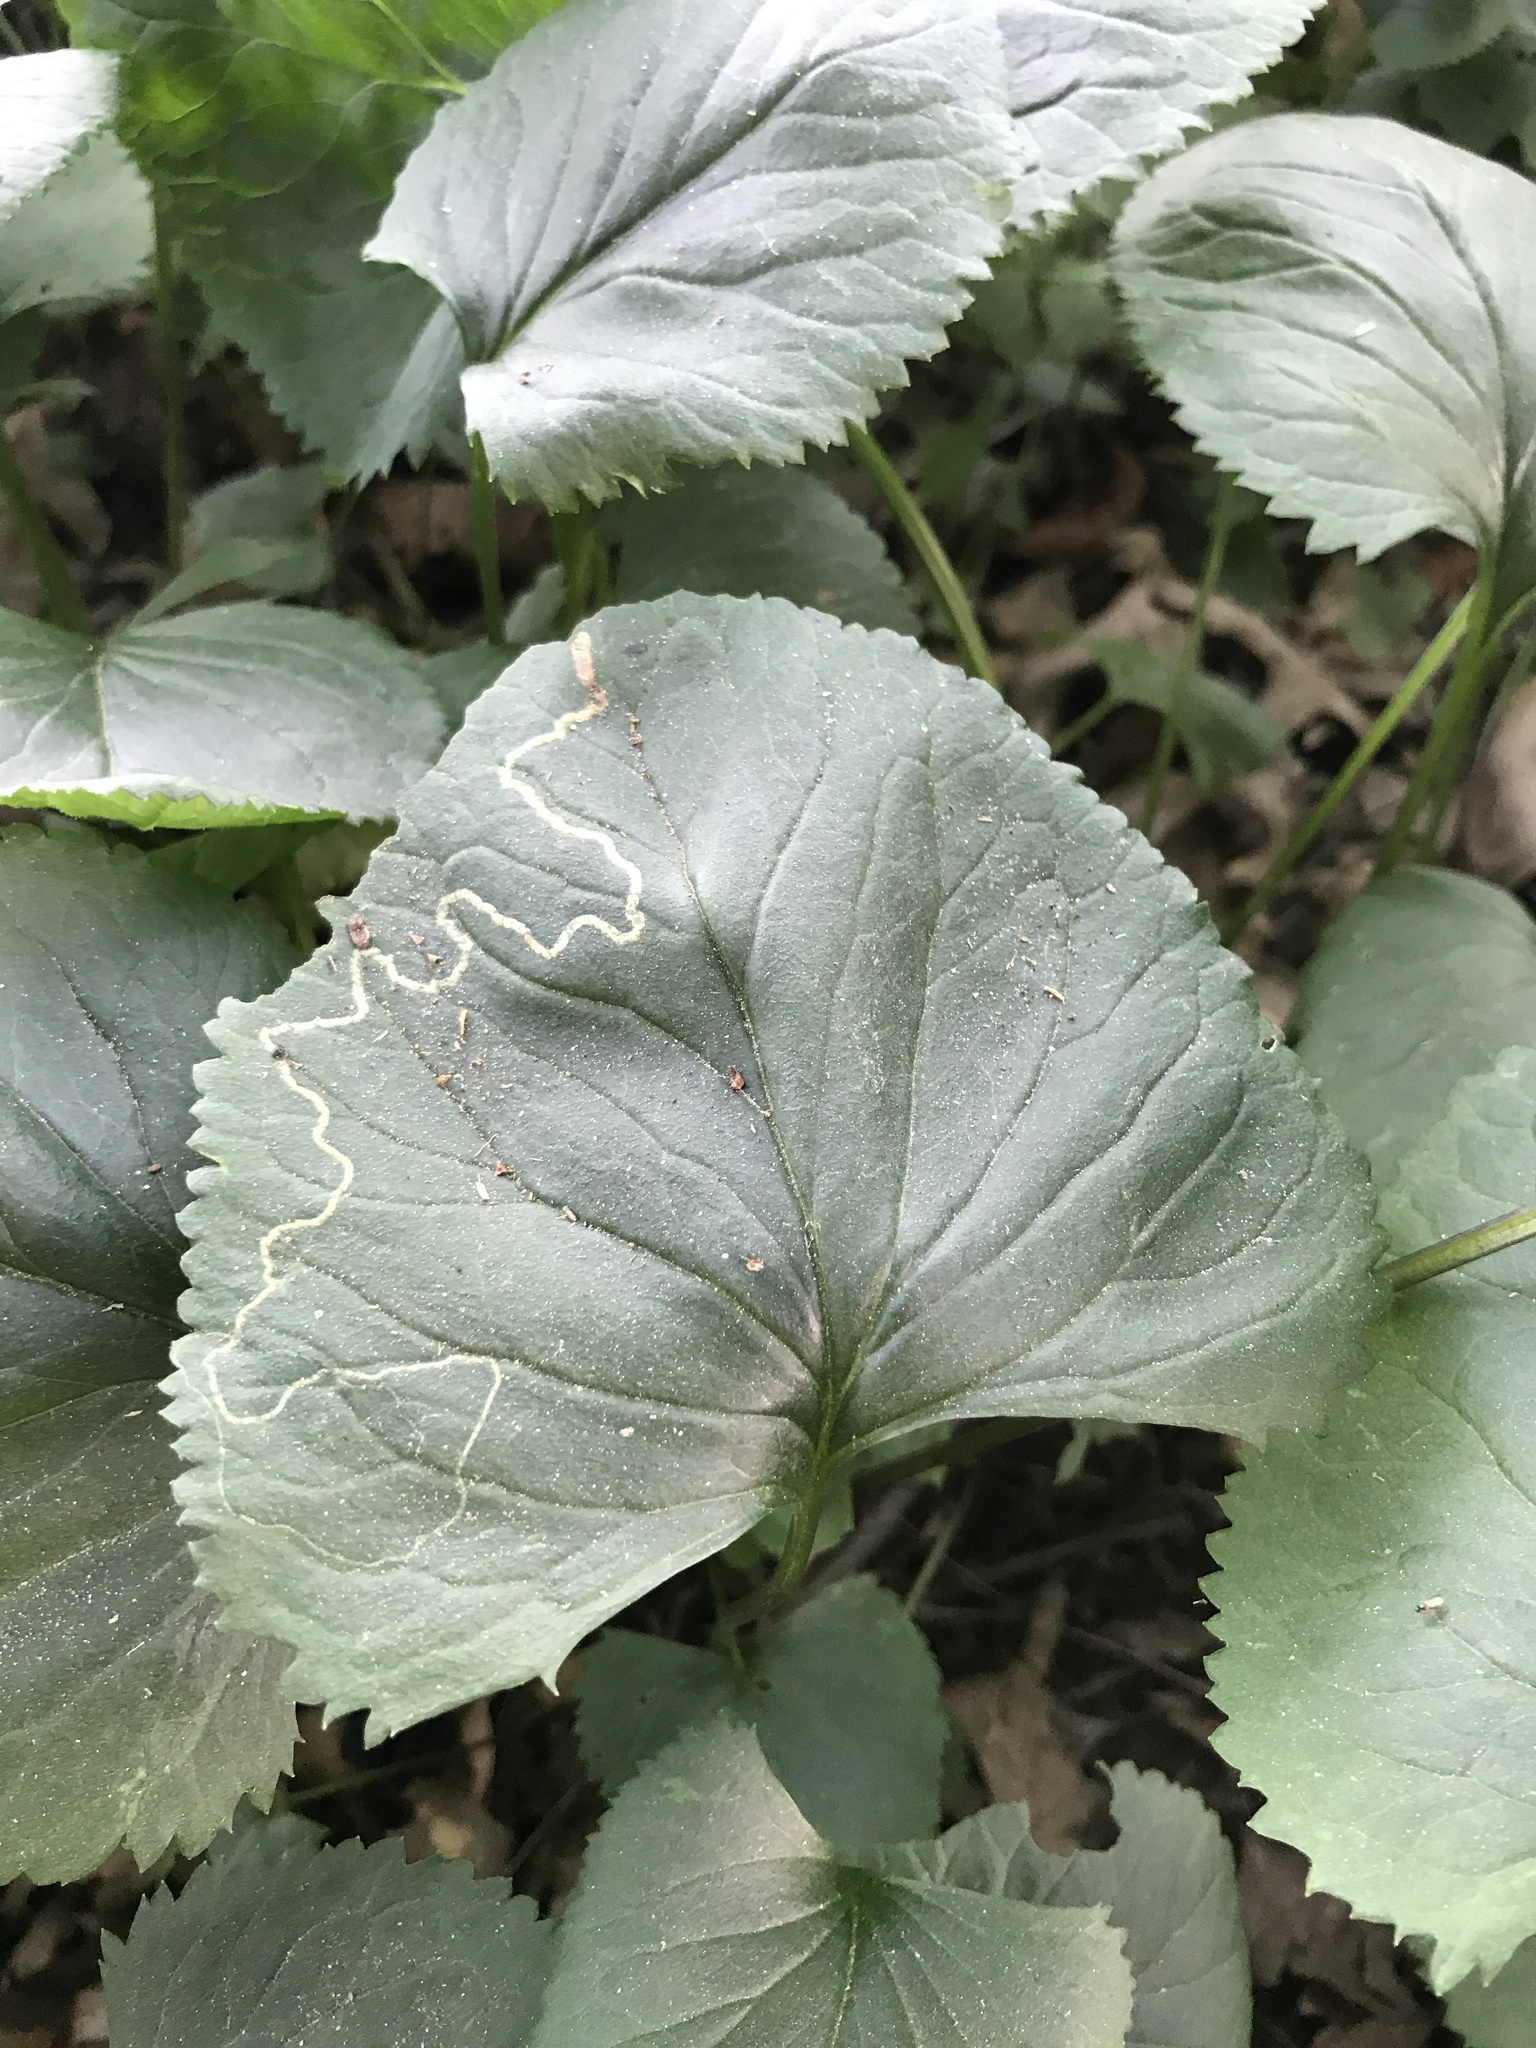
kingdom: Animalia
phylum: Arthropoda
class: Insecta
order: Lepidoptera
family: Gracillariidae
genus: Phyllocnistis
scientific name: Phyllocnistis insignis
